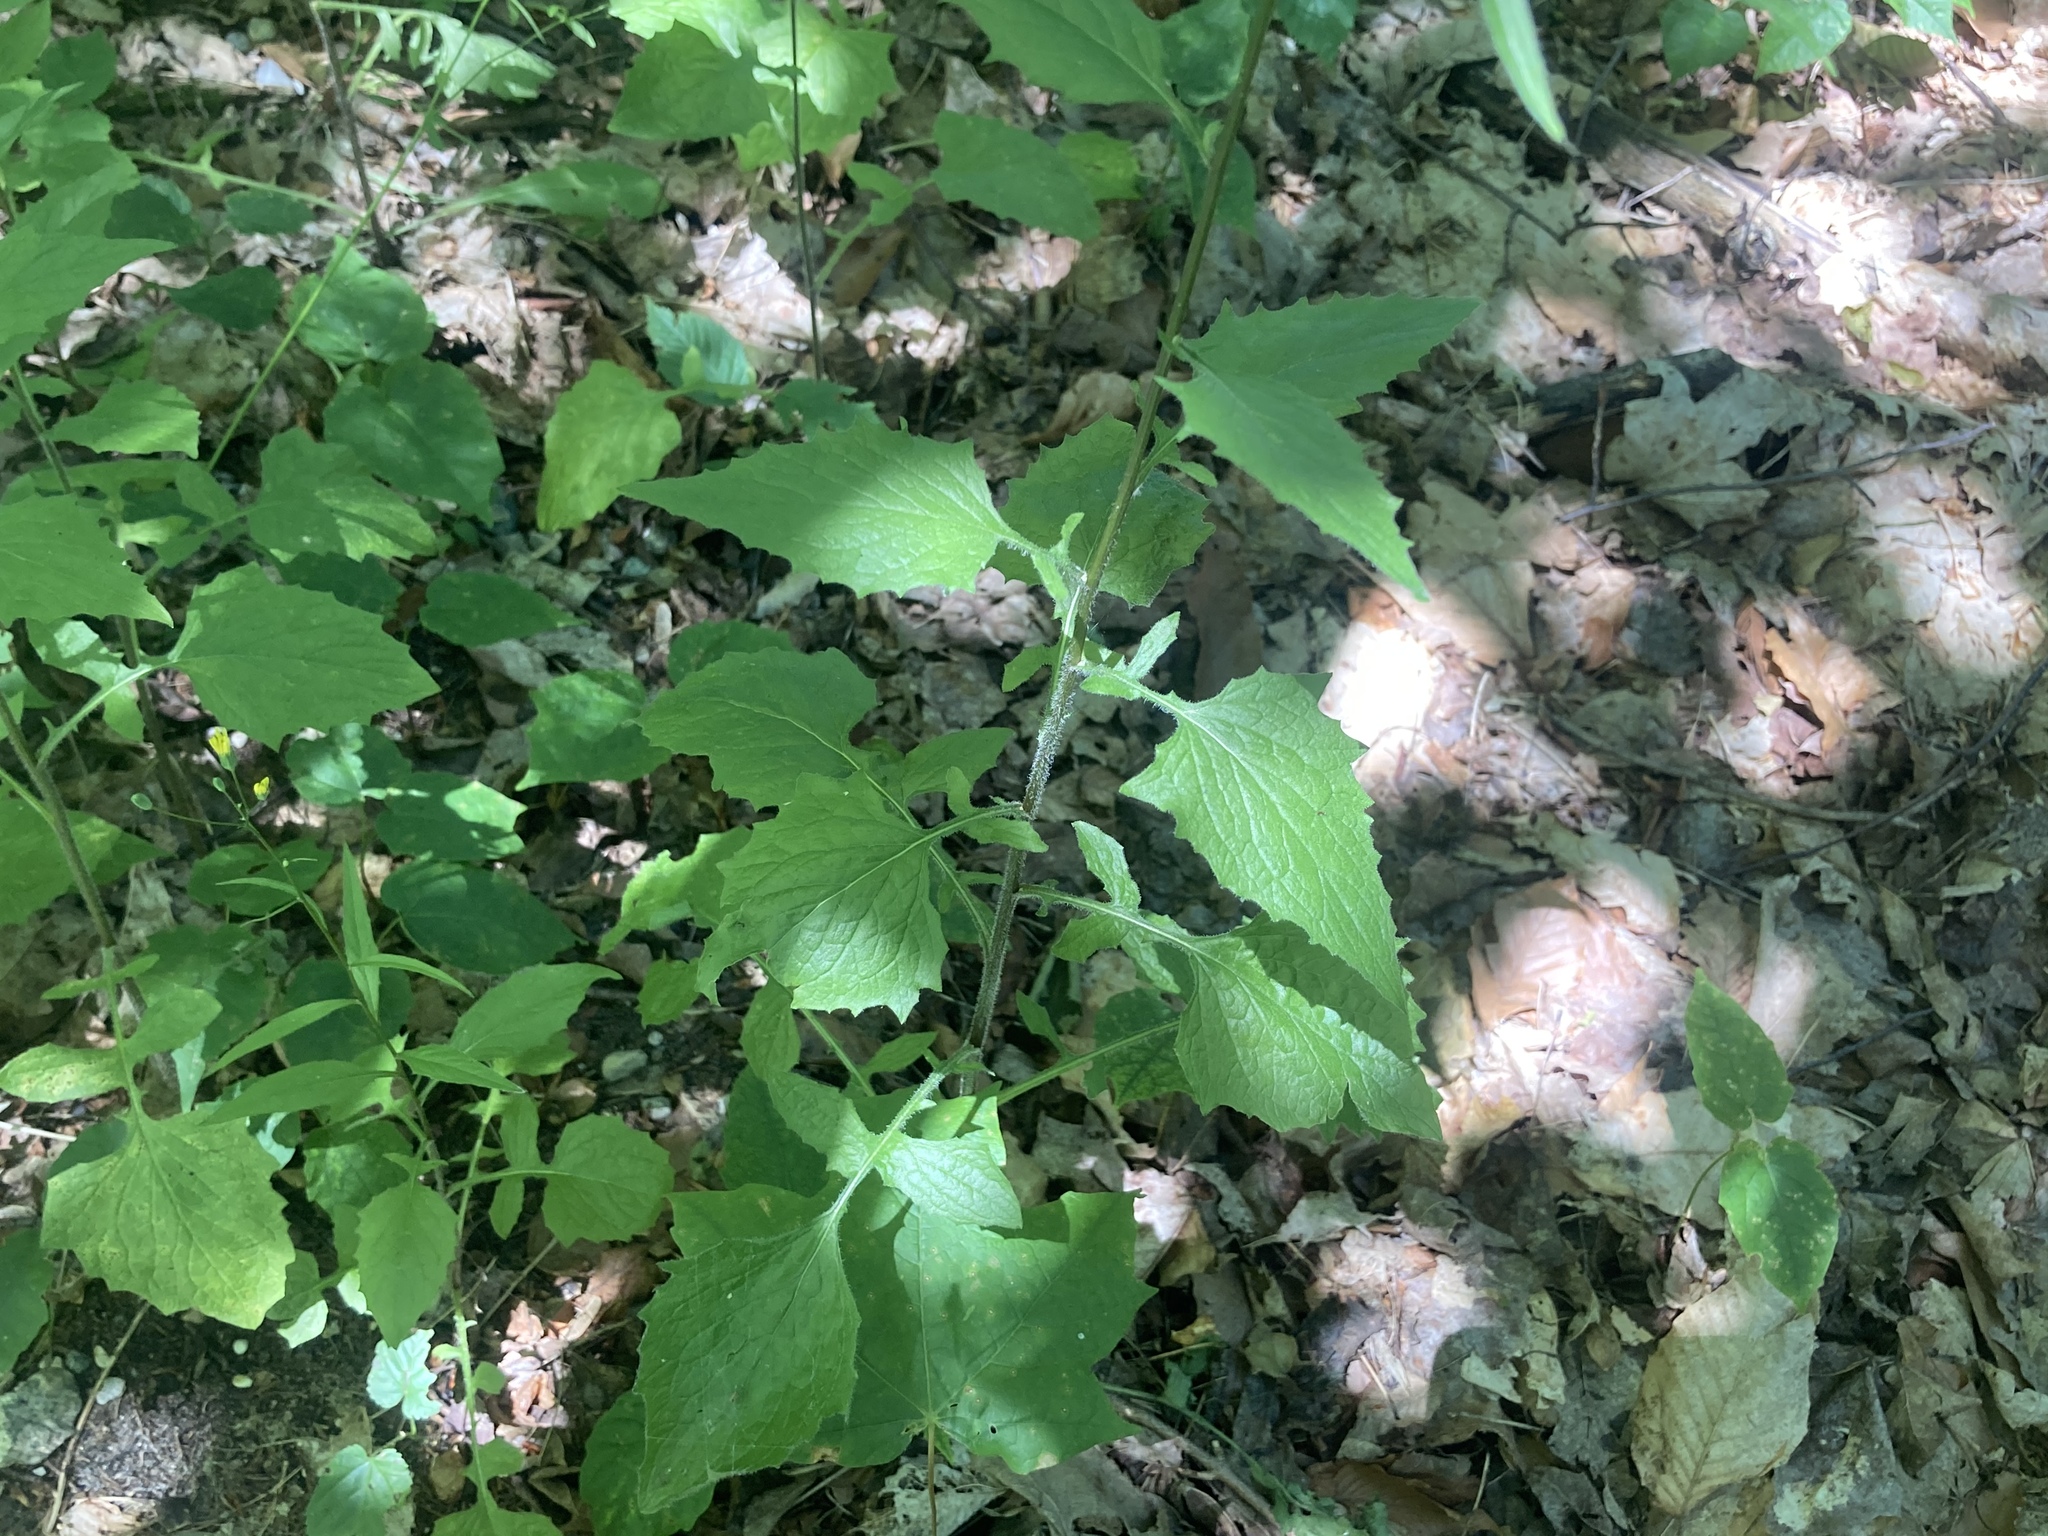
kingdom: Plantae
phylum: Tracheophyta
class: Magnoliopsida
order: Asterales
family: Asteraceae
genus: Lapsana
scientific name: Lapsana communis
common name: Nipplewort
